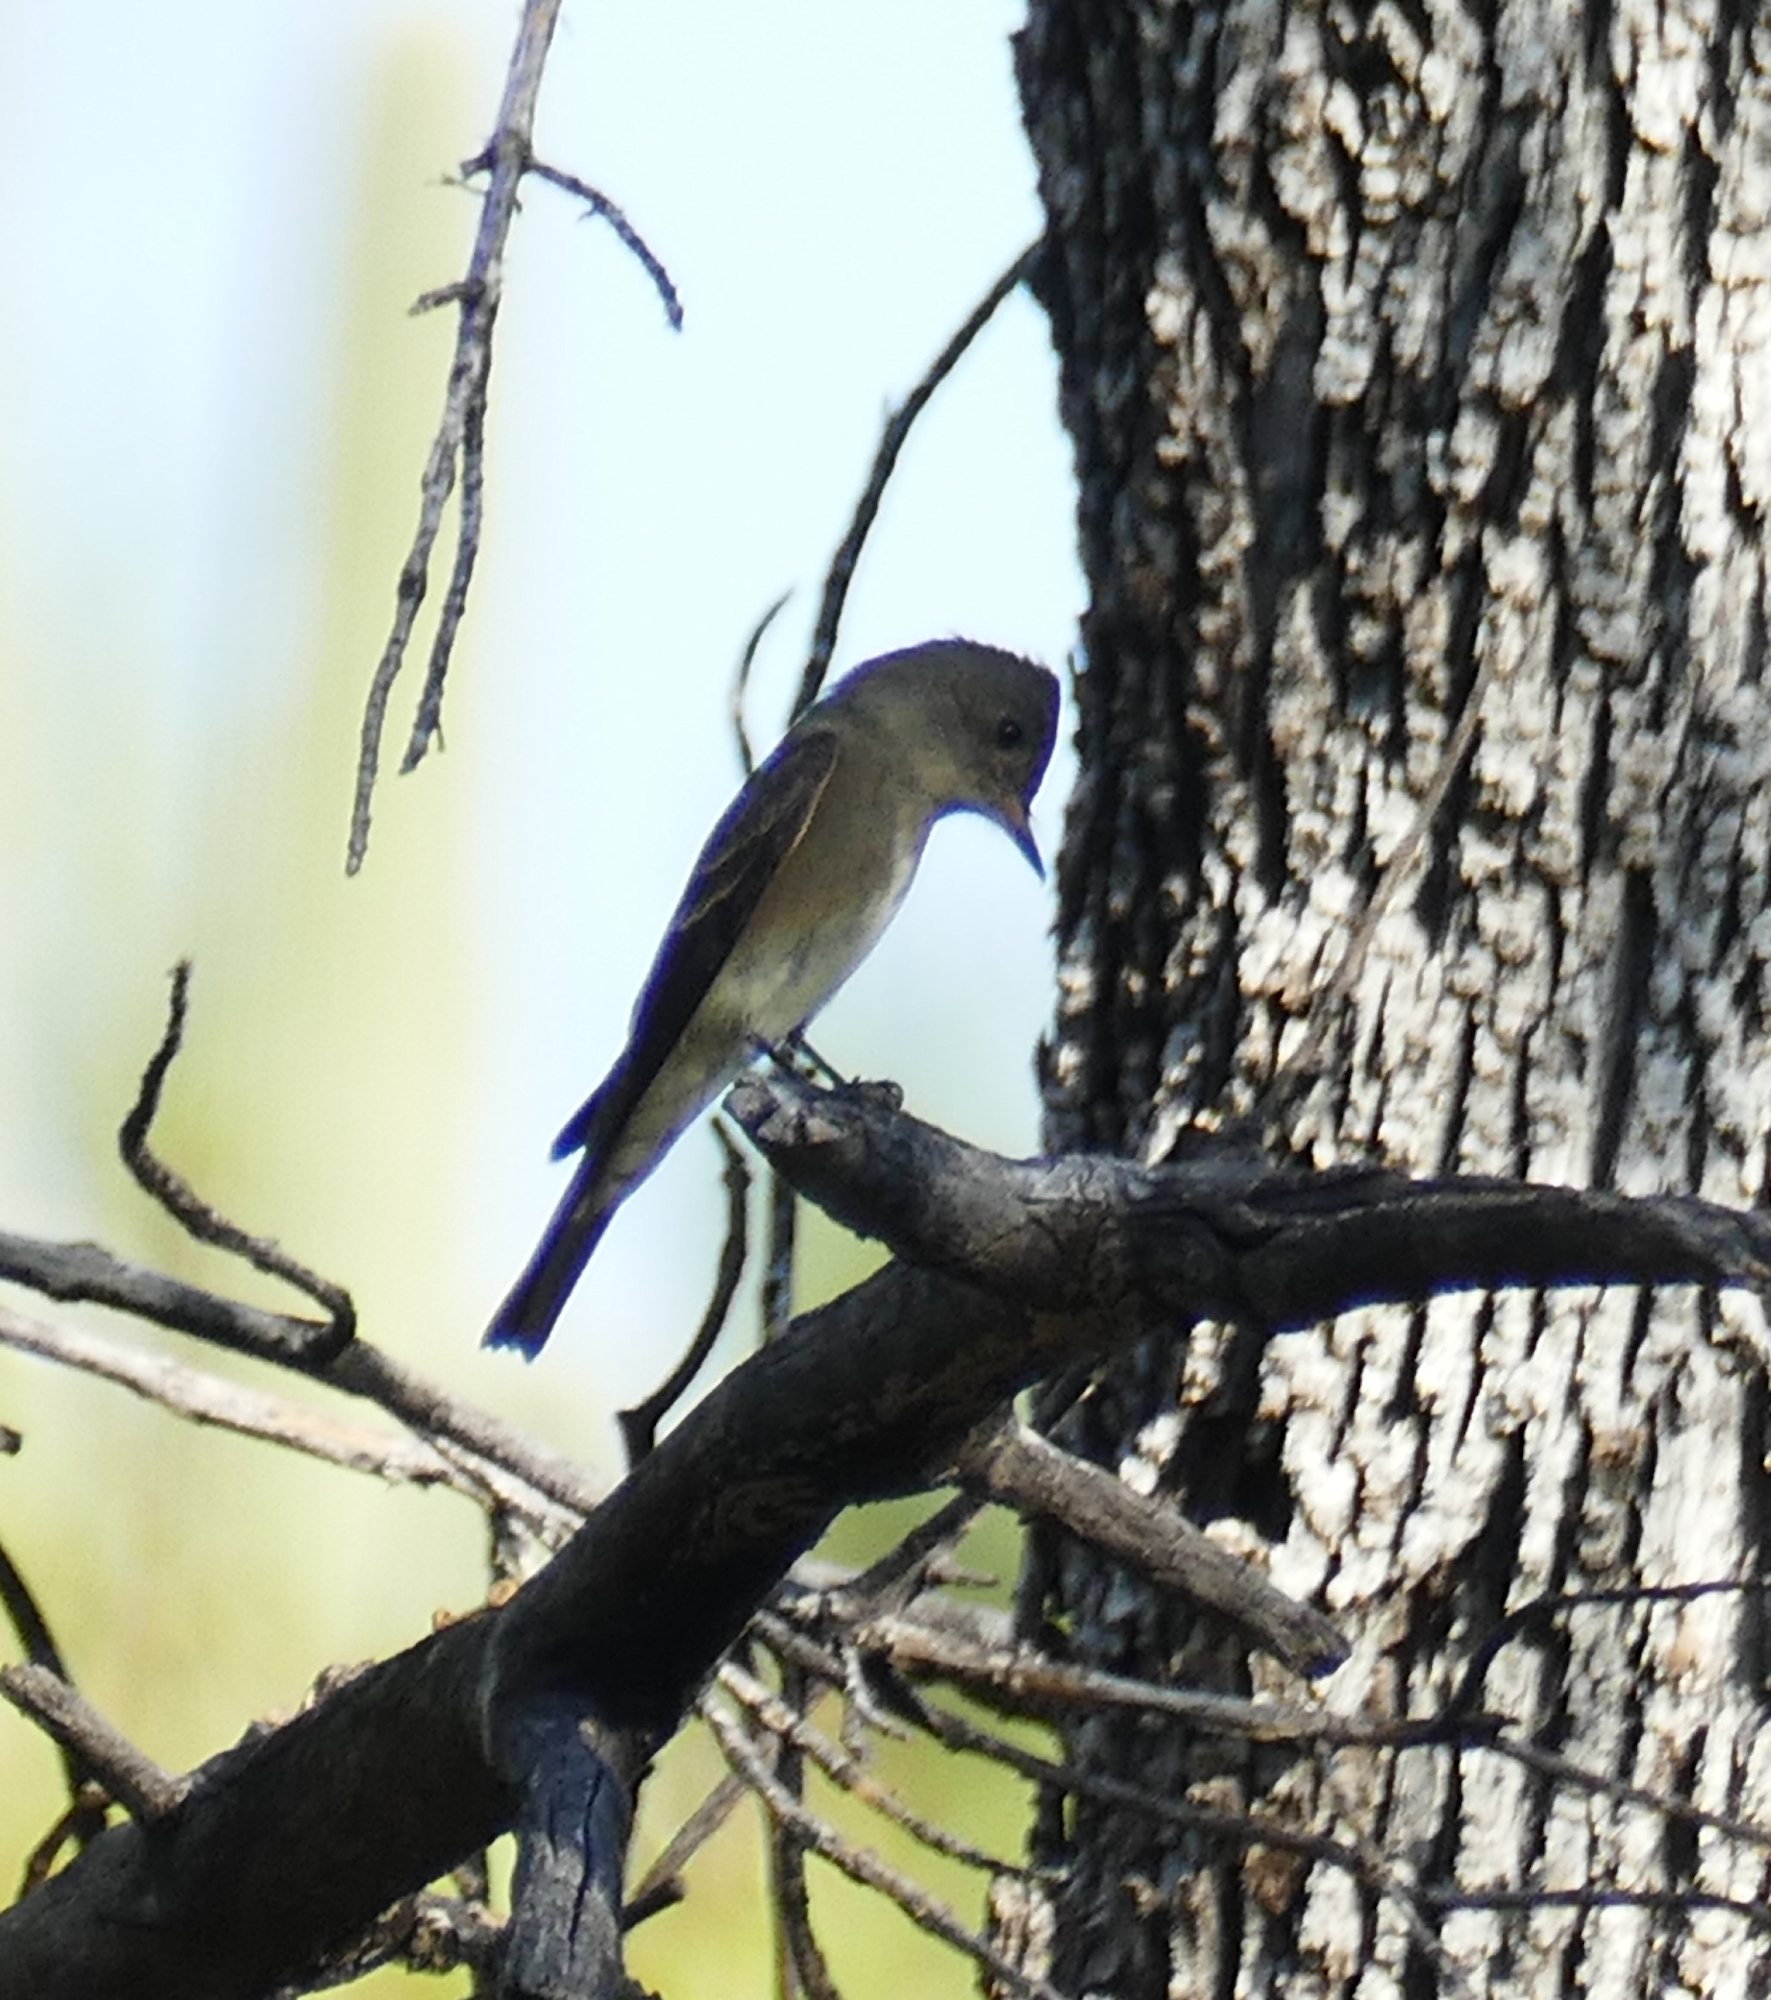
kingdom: Animalia
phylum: Chordata
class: Aves
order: Passeriformes
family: Tyrannidae
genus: Contopus
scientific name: Contopus sordidulus
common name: Western wood-pewee
